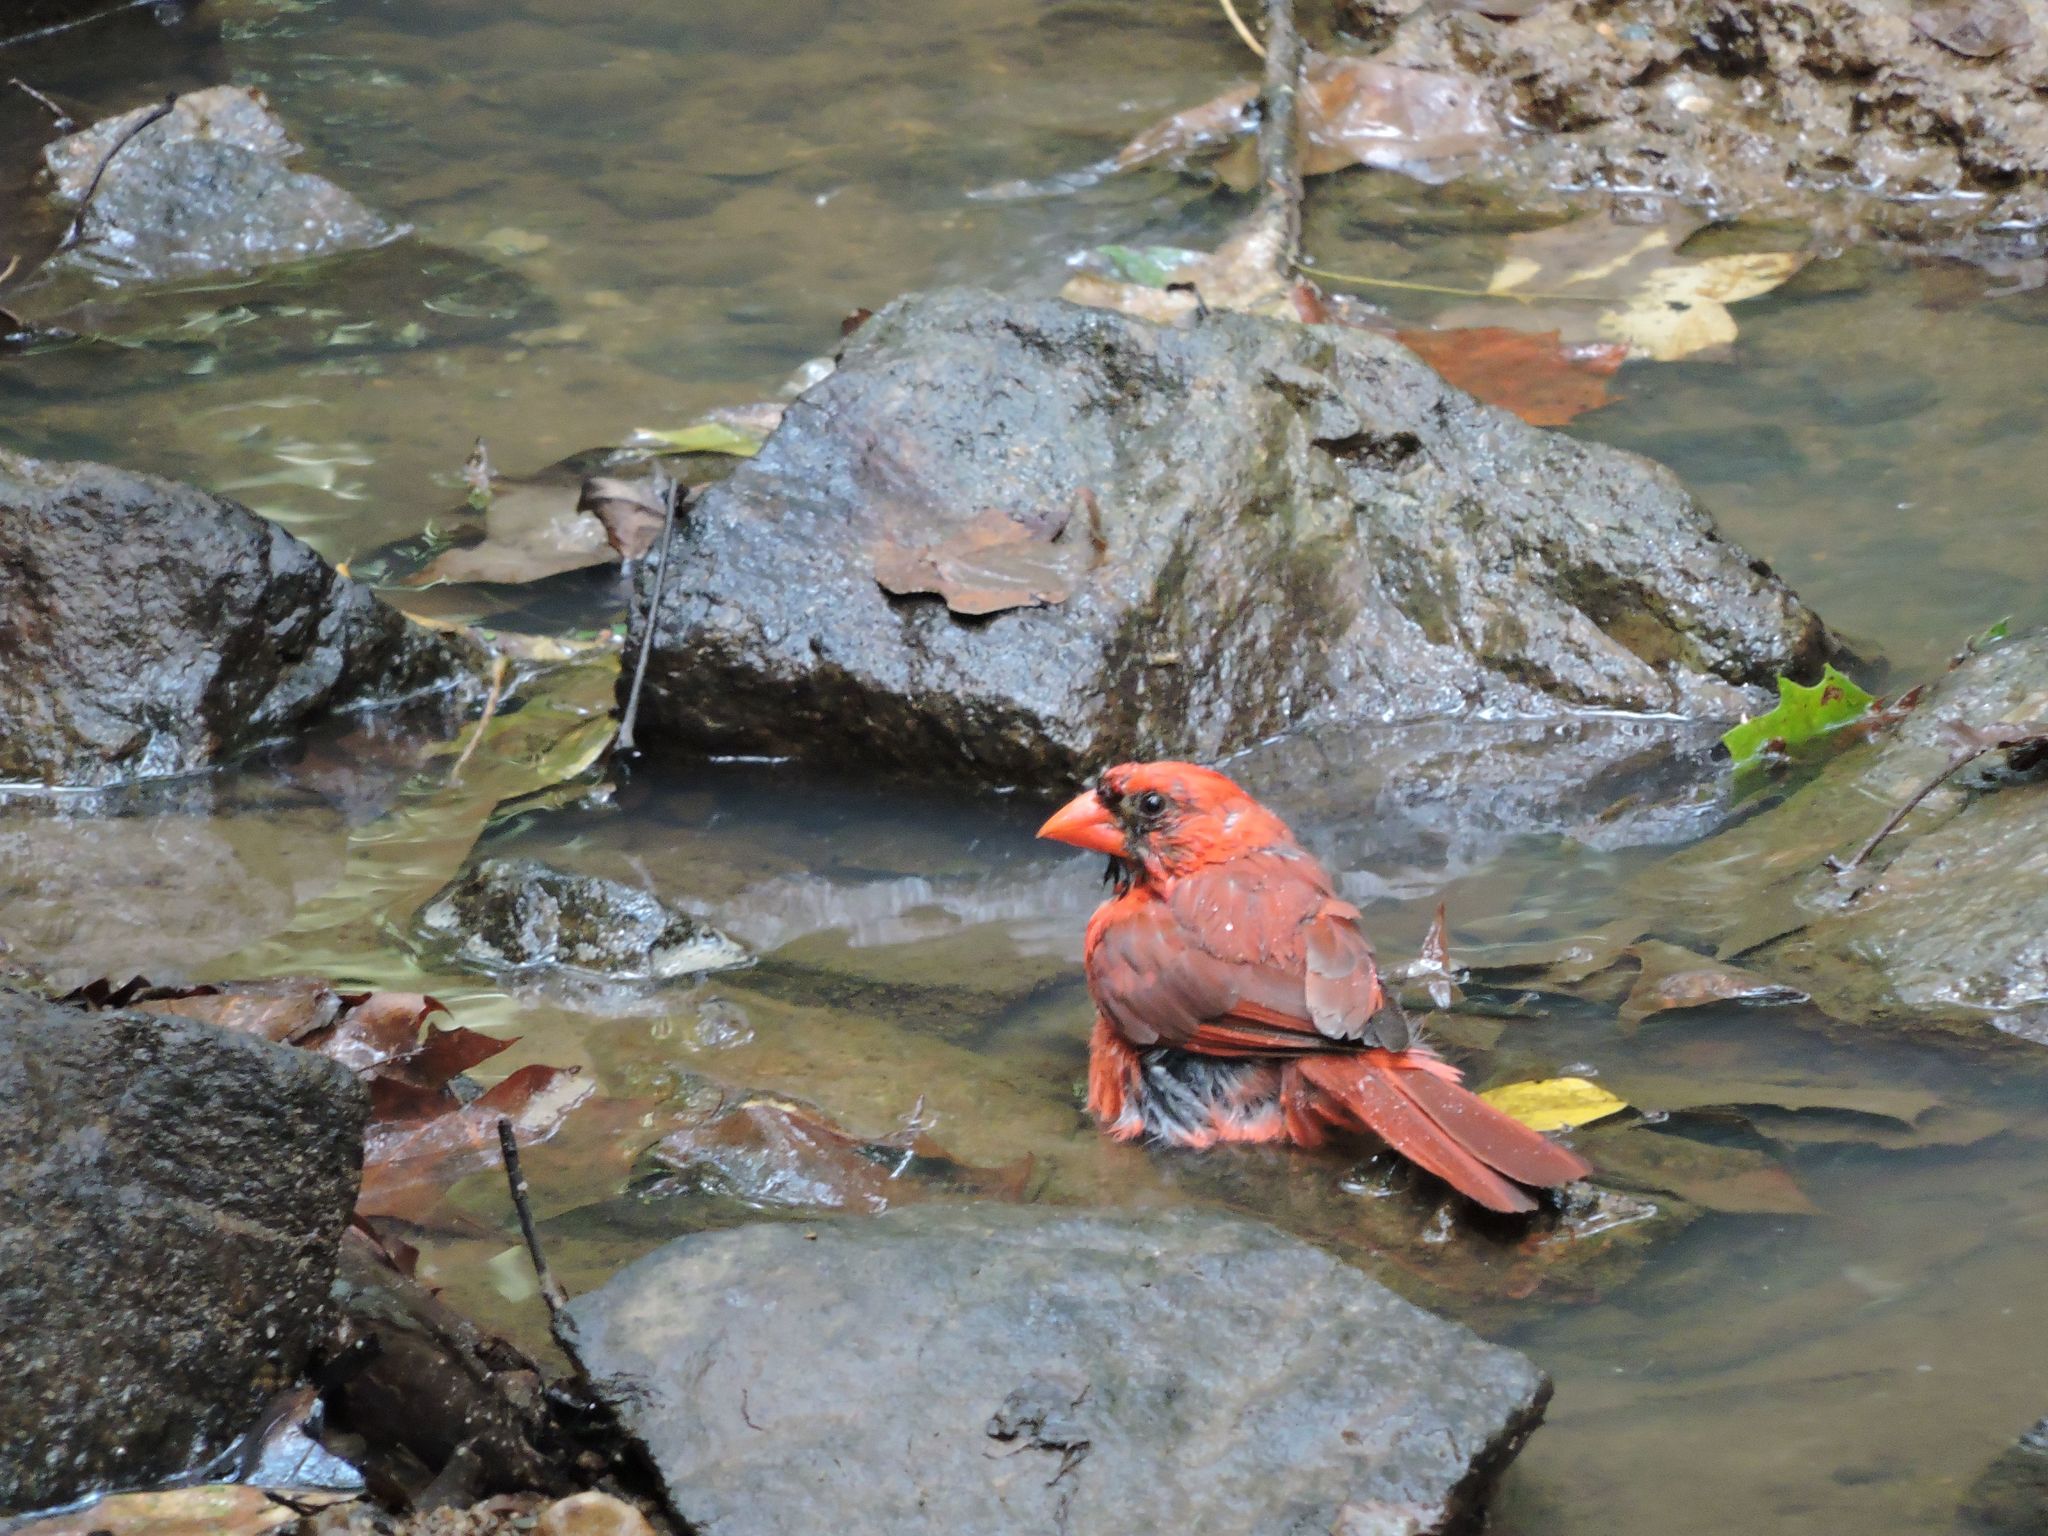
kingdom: Animalia
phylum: Chordata
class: Aves
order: Passeriformes
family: Cardinalidae
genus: Cardinalis
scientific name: Cardinalis cardinalis
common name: Northern cardinal
